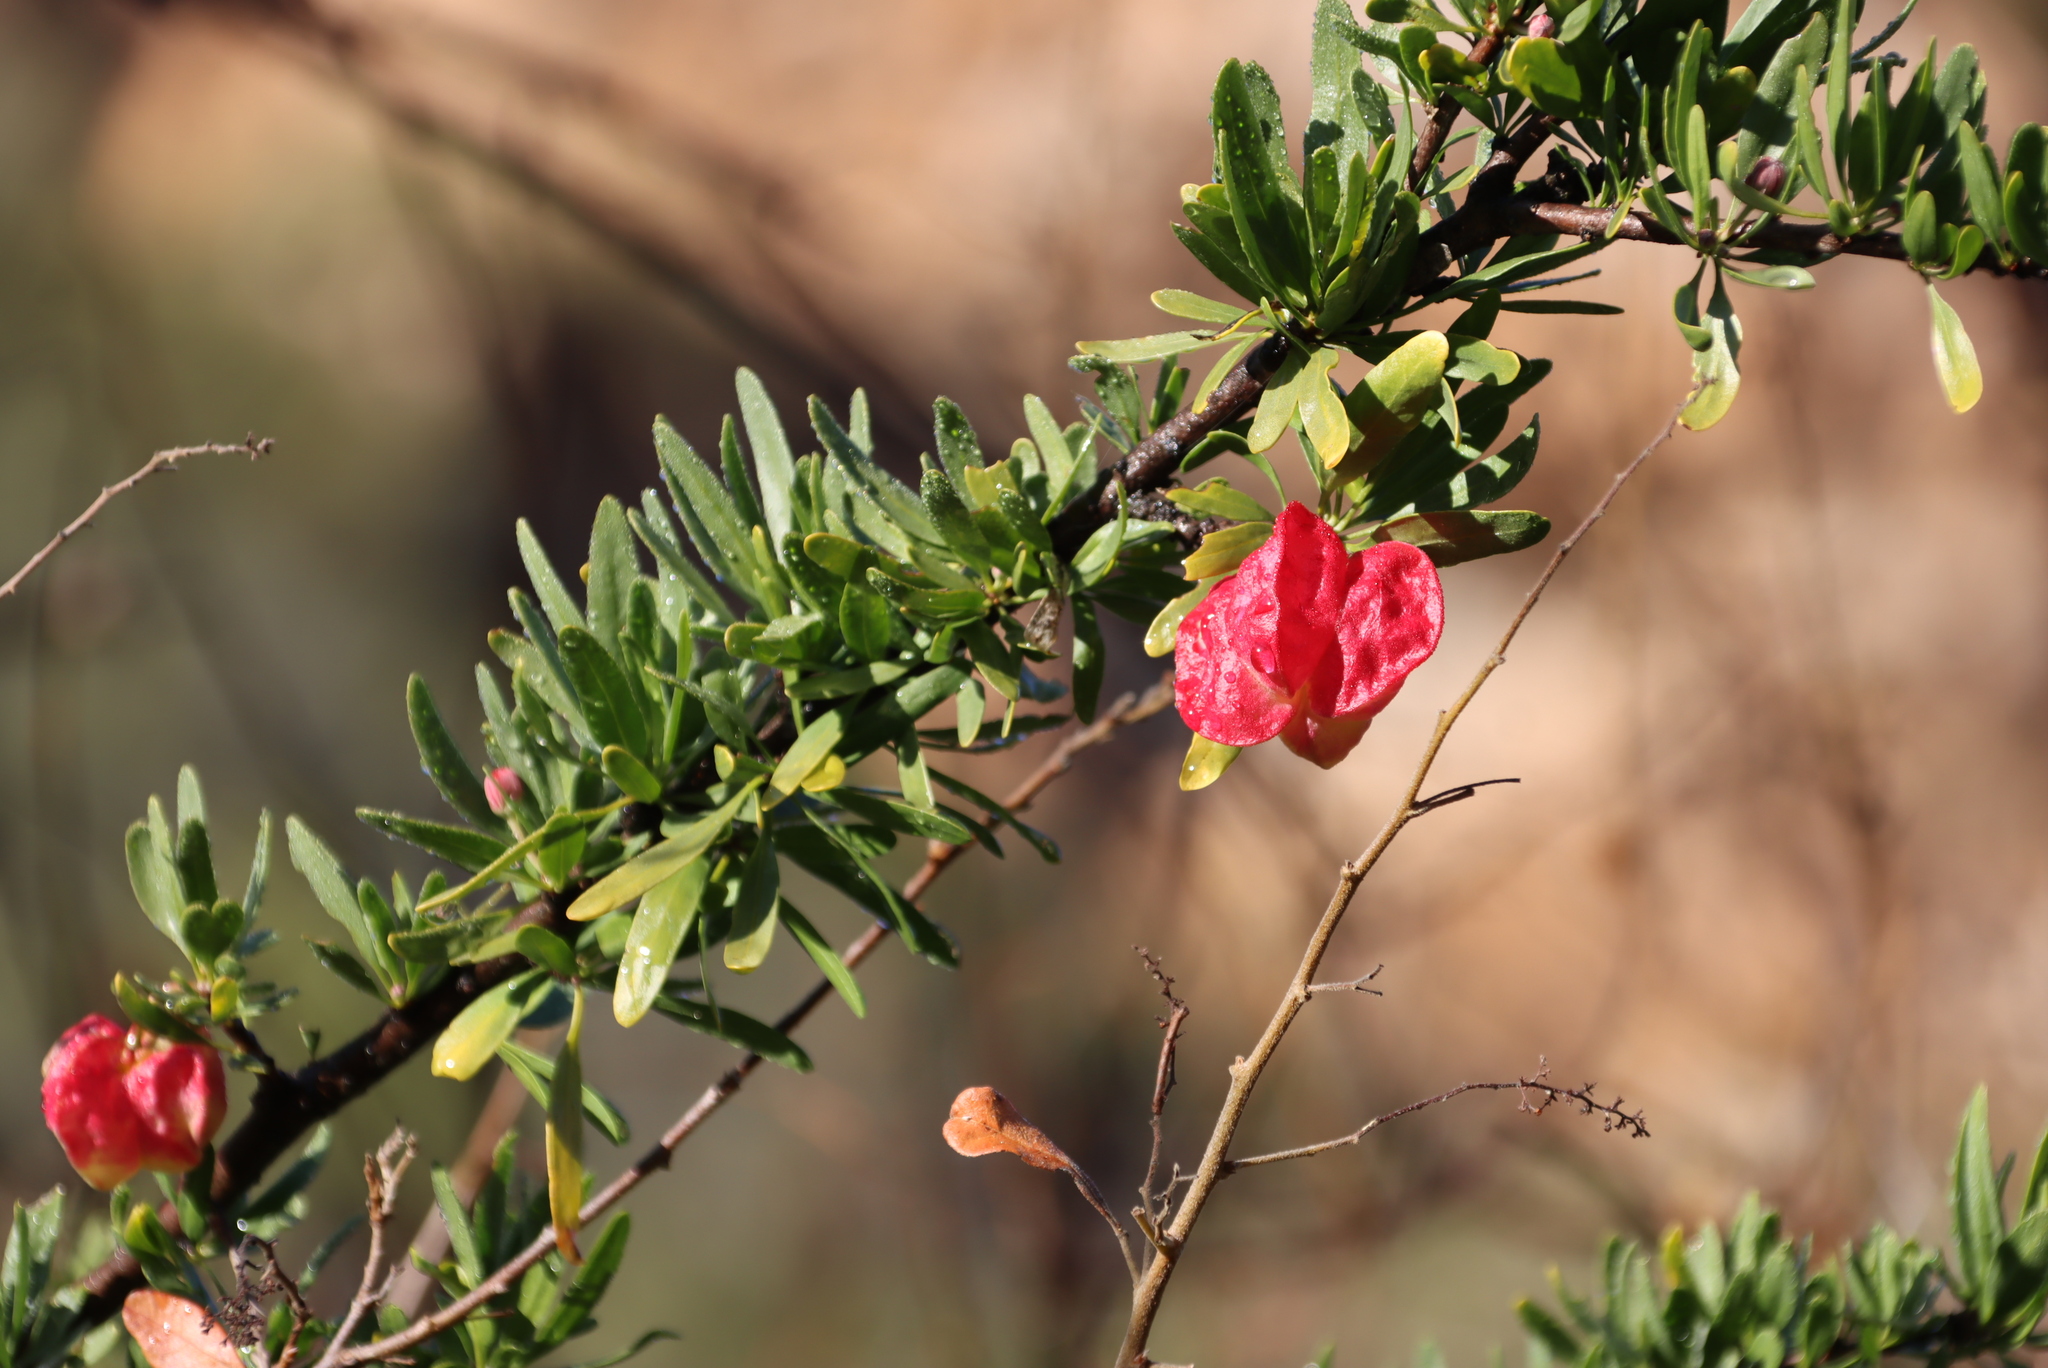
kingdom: Plantae
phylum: Tracheophyta
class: Magnoliopsida
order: Sapindales
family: Meliaceae
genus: Nymania
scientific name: Nymania capensis
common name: Chinese lantern tree
